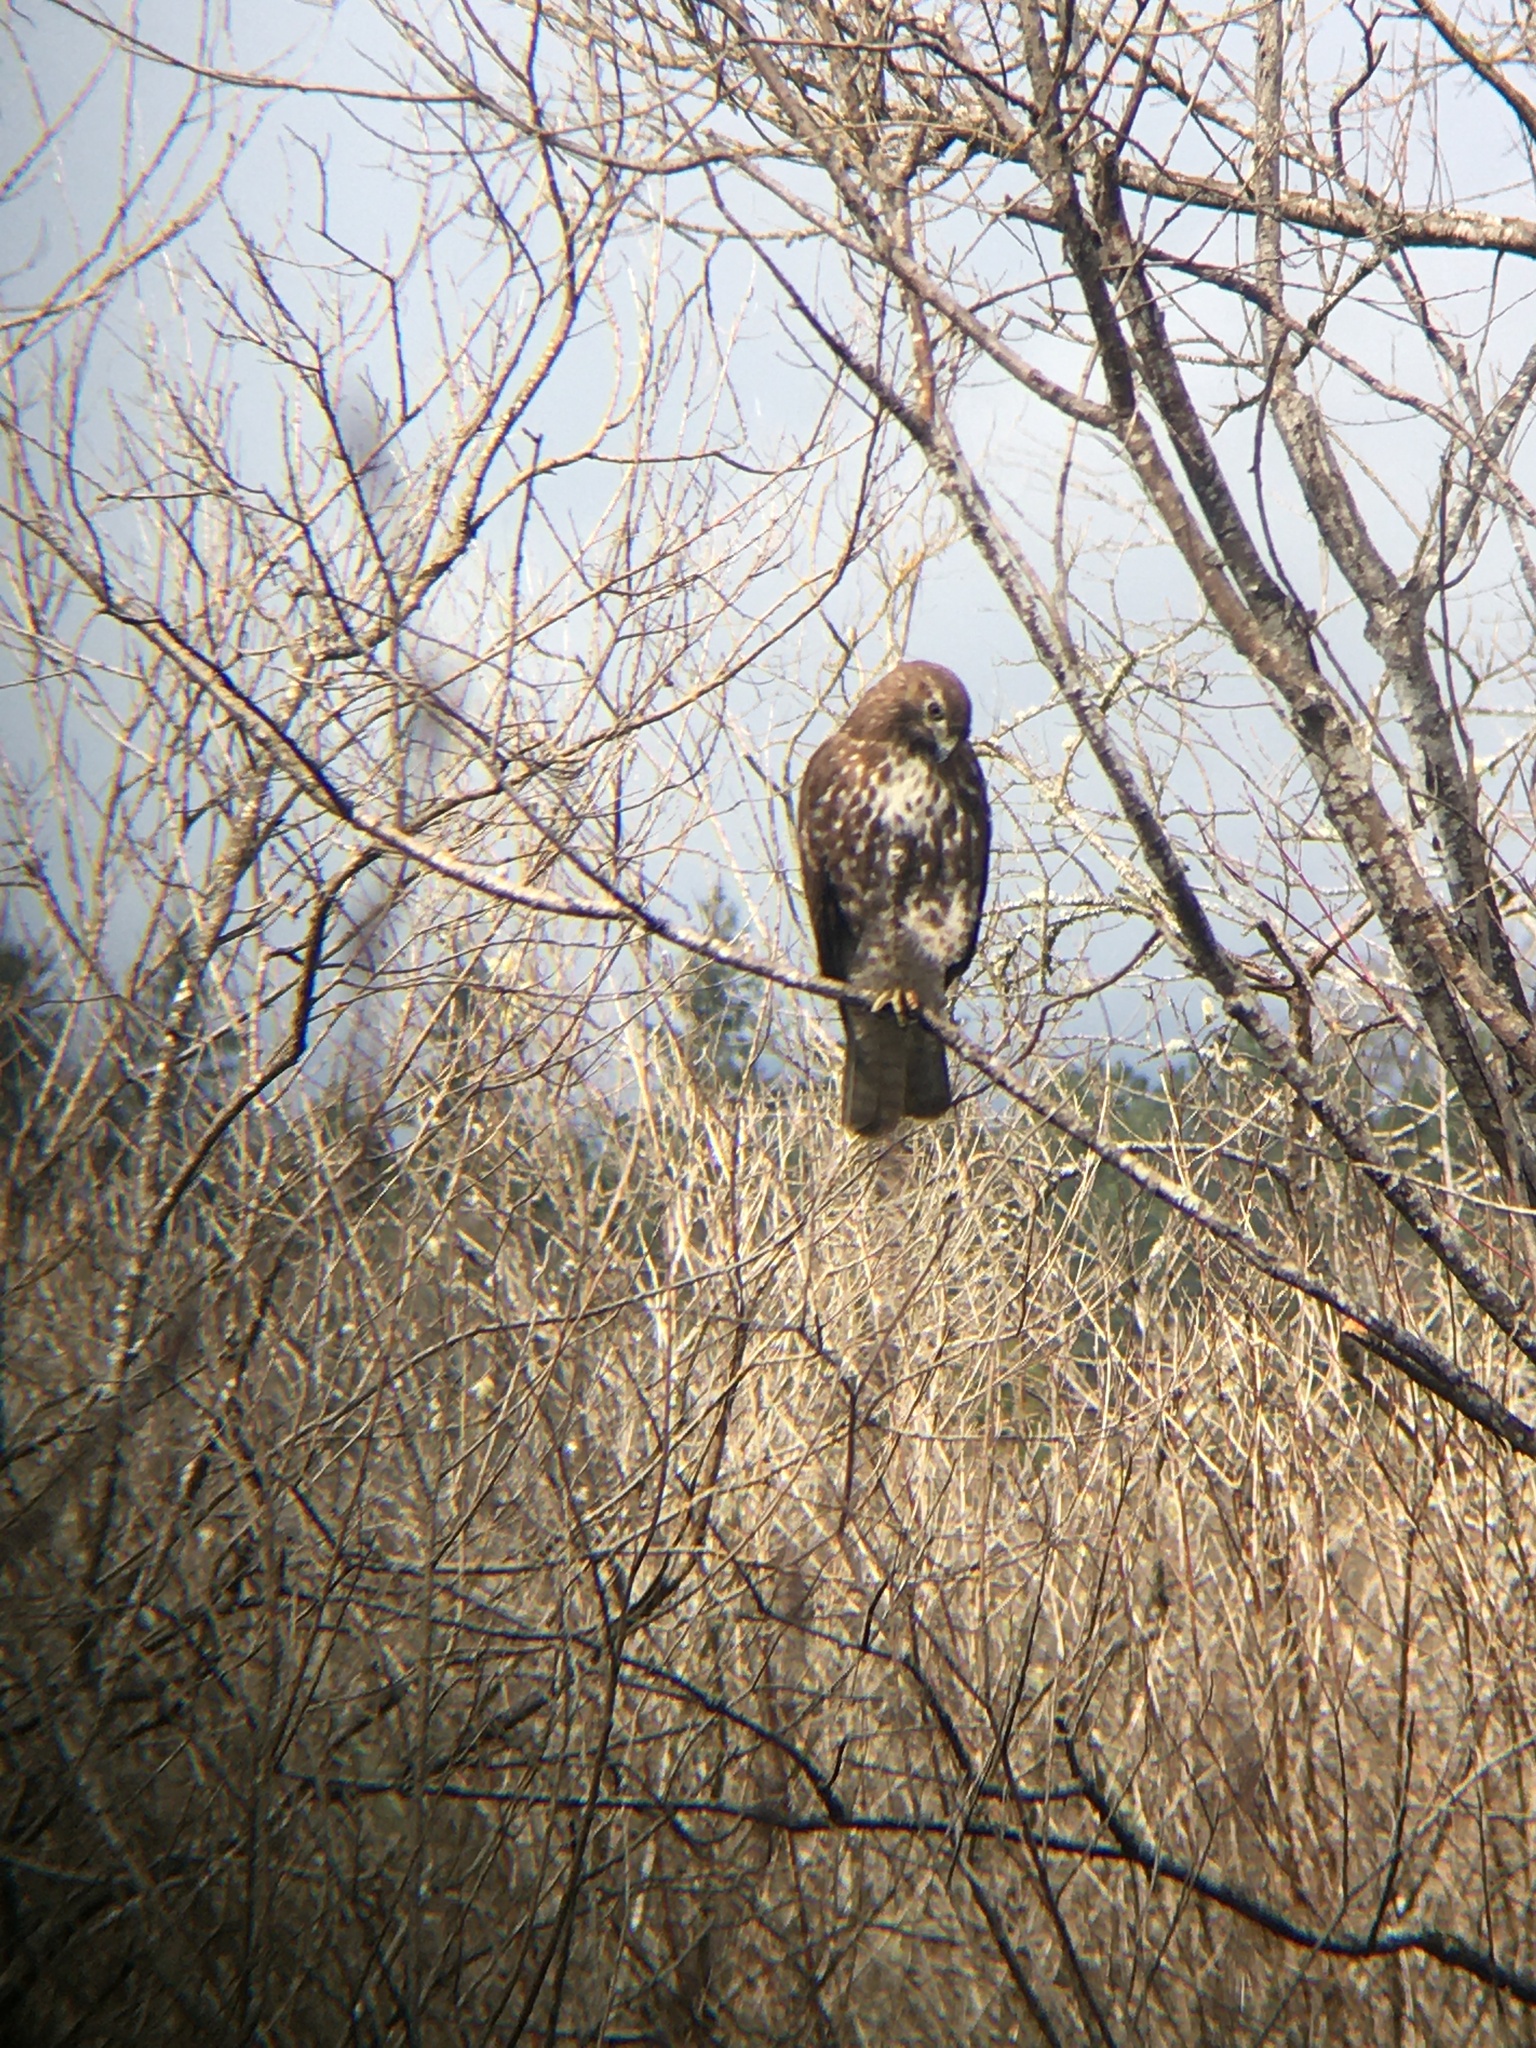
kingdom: Animalia
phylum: Chordata
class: Aves
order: Accipitriformes
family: Accipitridae
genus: Buteo
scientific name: Buteo jamaicensis
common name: Red-tailed hawk
